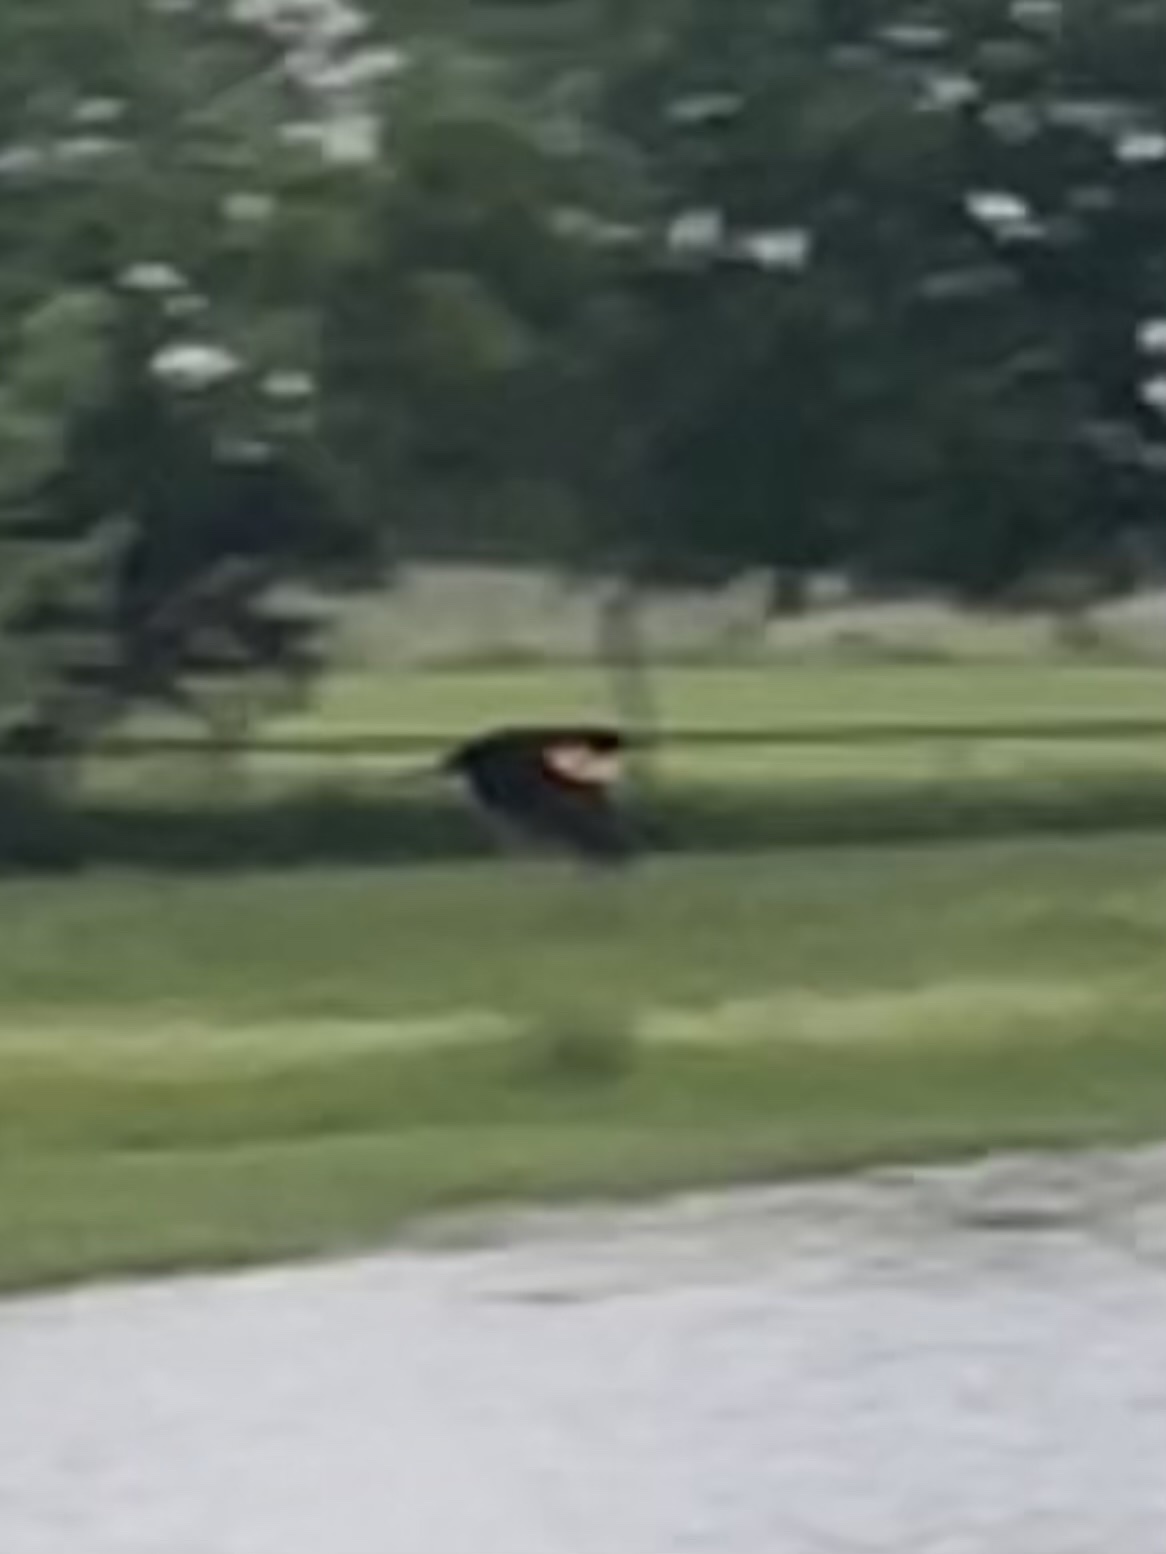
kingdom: Animalia
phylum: Chordata
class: Aves
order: Passeriformes
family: Icteridae
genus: Agelaius
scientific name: Agelaius phoeniceus
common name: Red-winged blackbird
